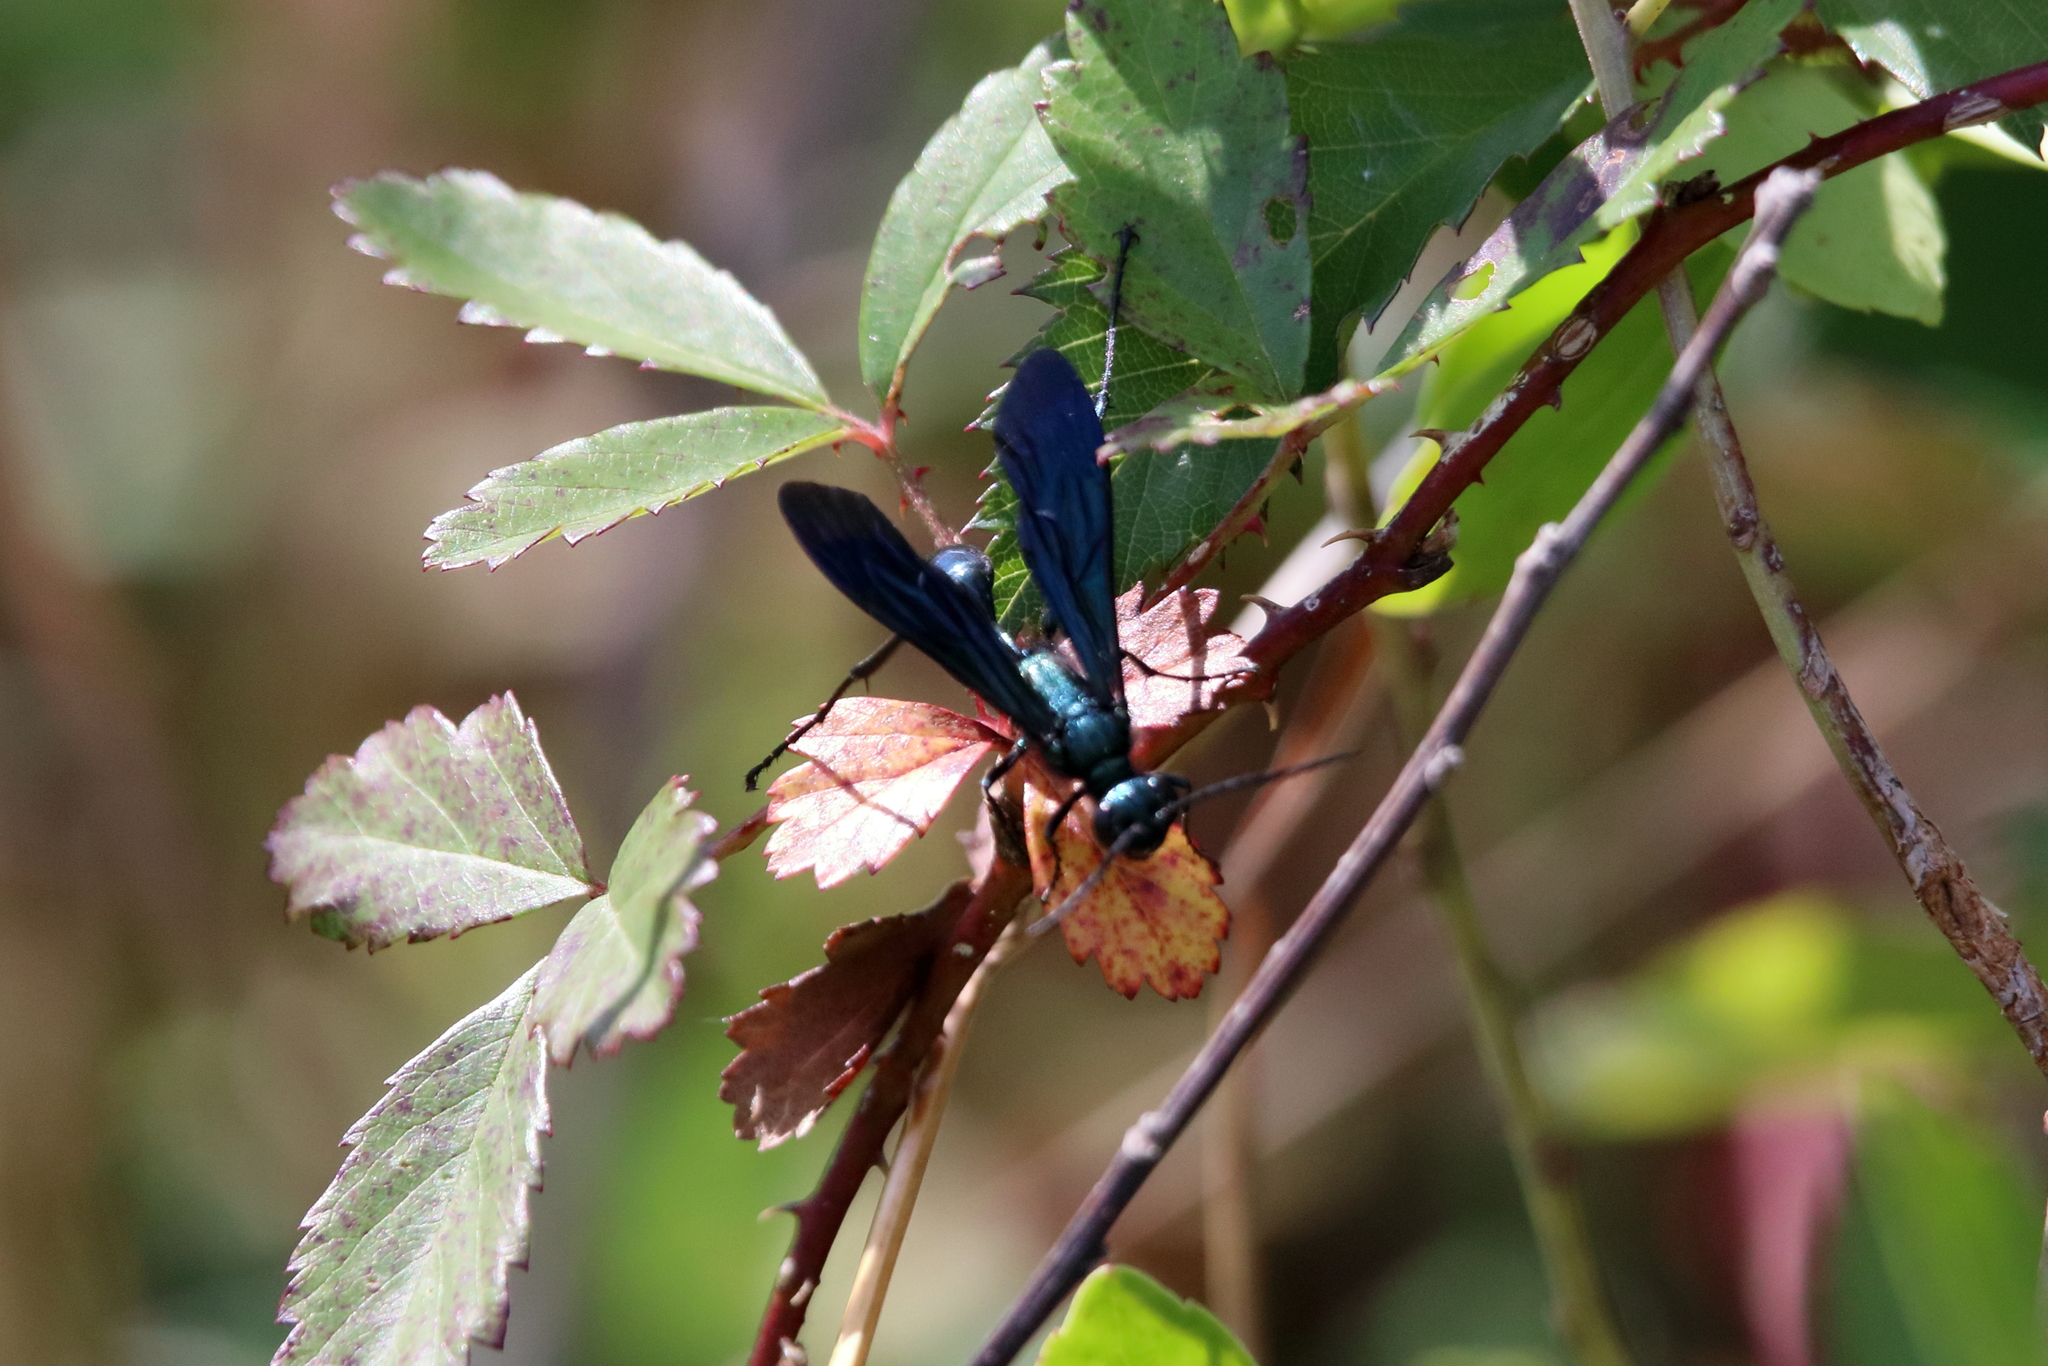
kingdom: Animalia
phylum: Arthropoda
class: Insecta
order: Hymenoptera
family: Sphecidae
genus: Chalybion
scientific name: Chalybion californicum
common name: Mud dauber
